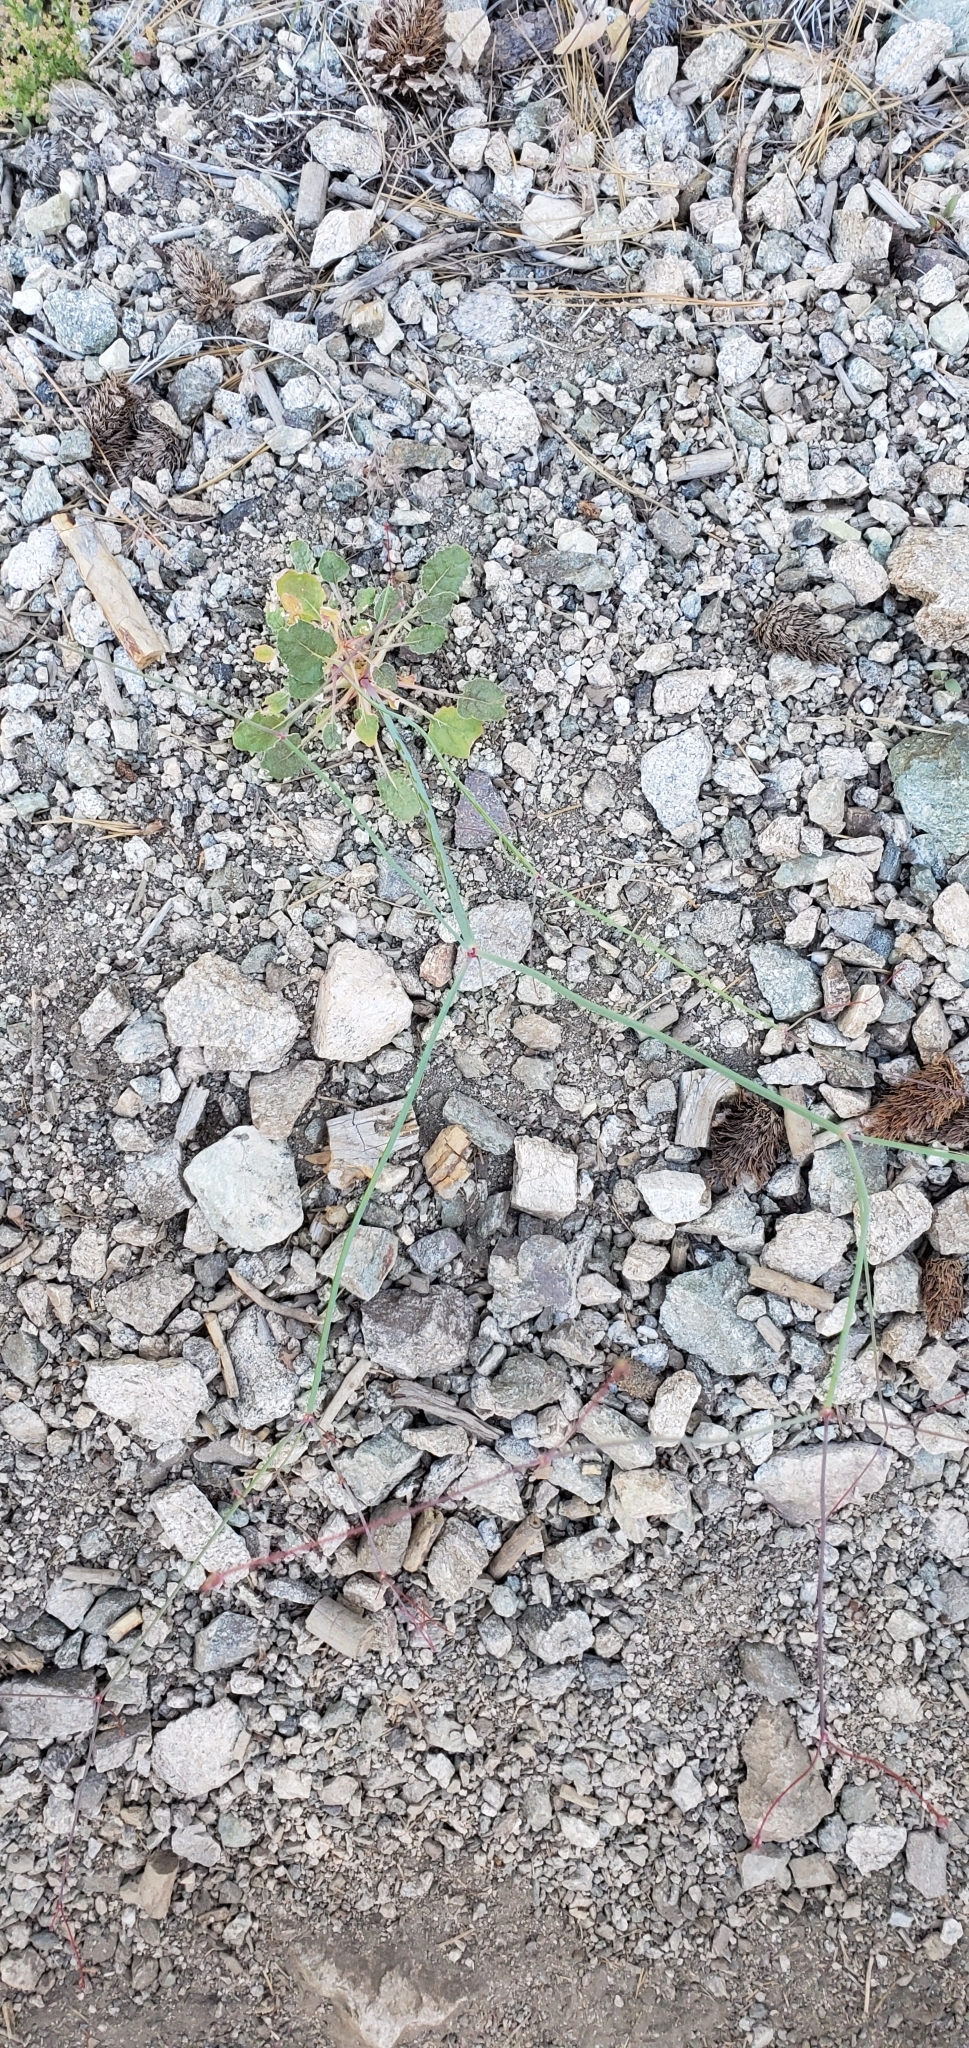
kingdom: Plantae
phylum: Tracheophyta
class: Magnoliopsida
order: Caryophyllales
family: Polygonaceae
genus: Eriogonum
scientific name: Eriogonum nudum
